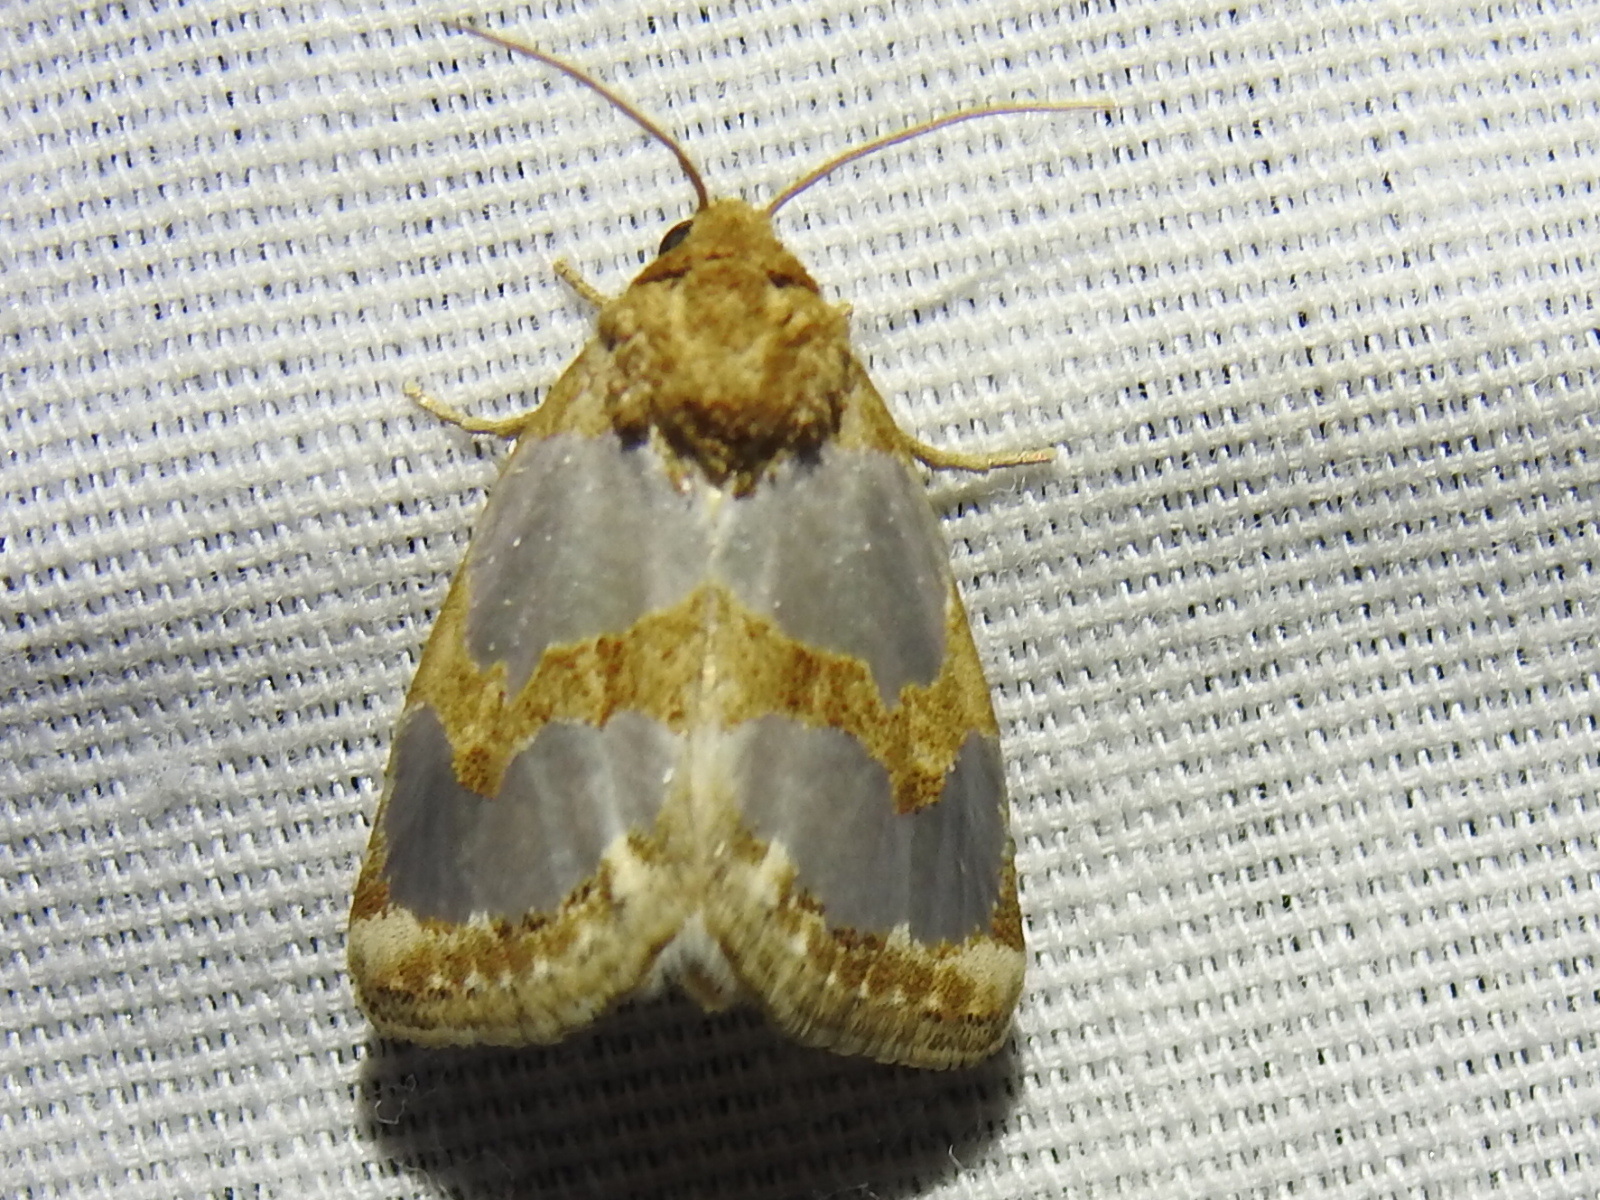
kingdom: Animalia
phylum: Arthropoda
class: Insecta
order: Lepidoptera
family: Noctuidae
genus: Schinia
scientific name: Schinia chrysellus
